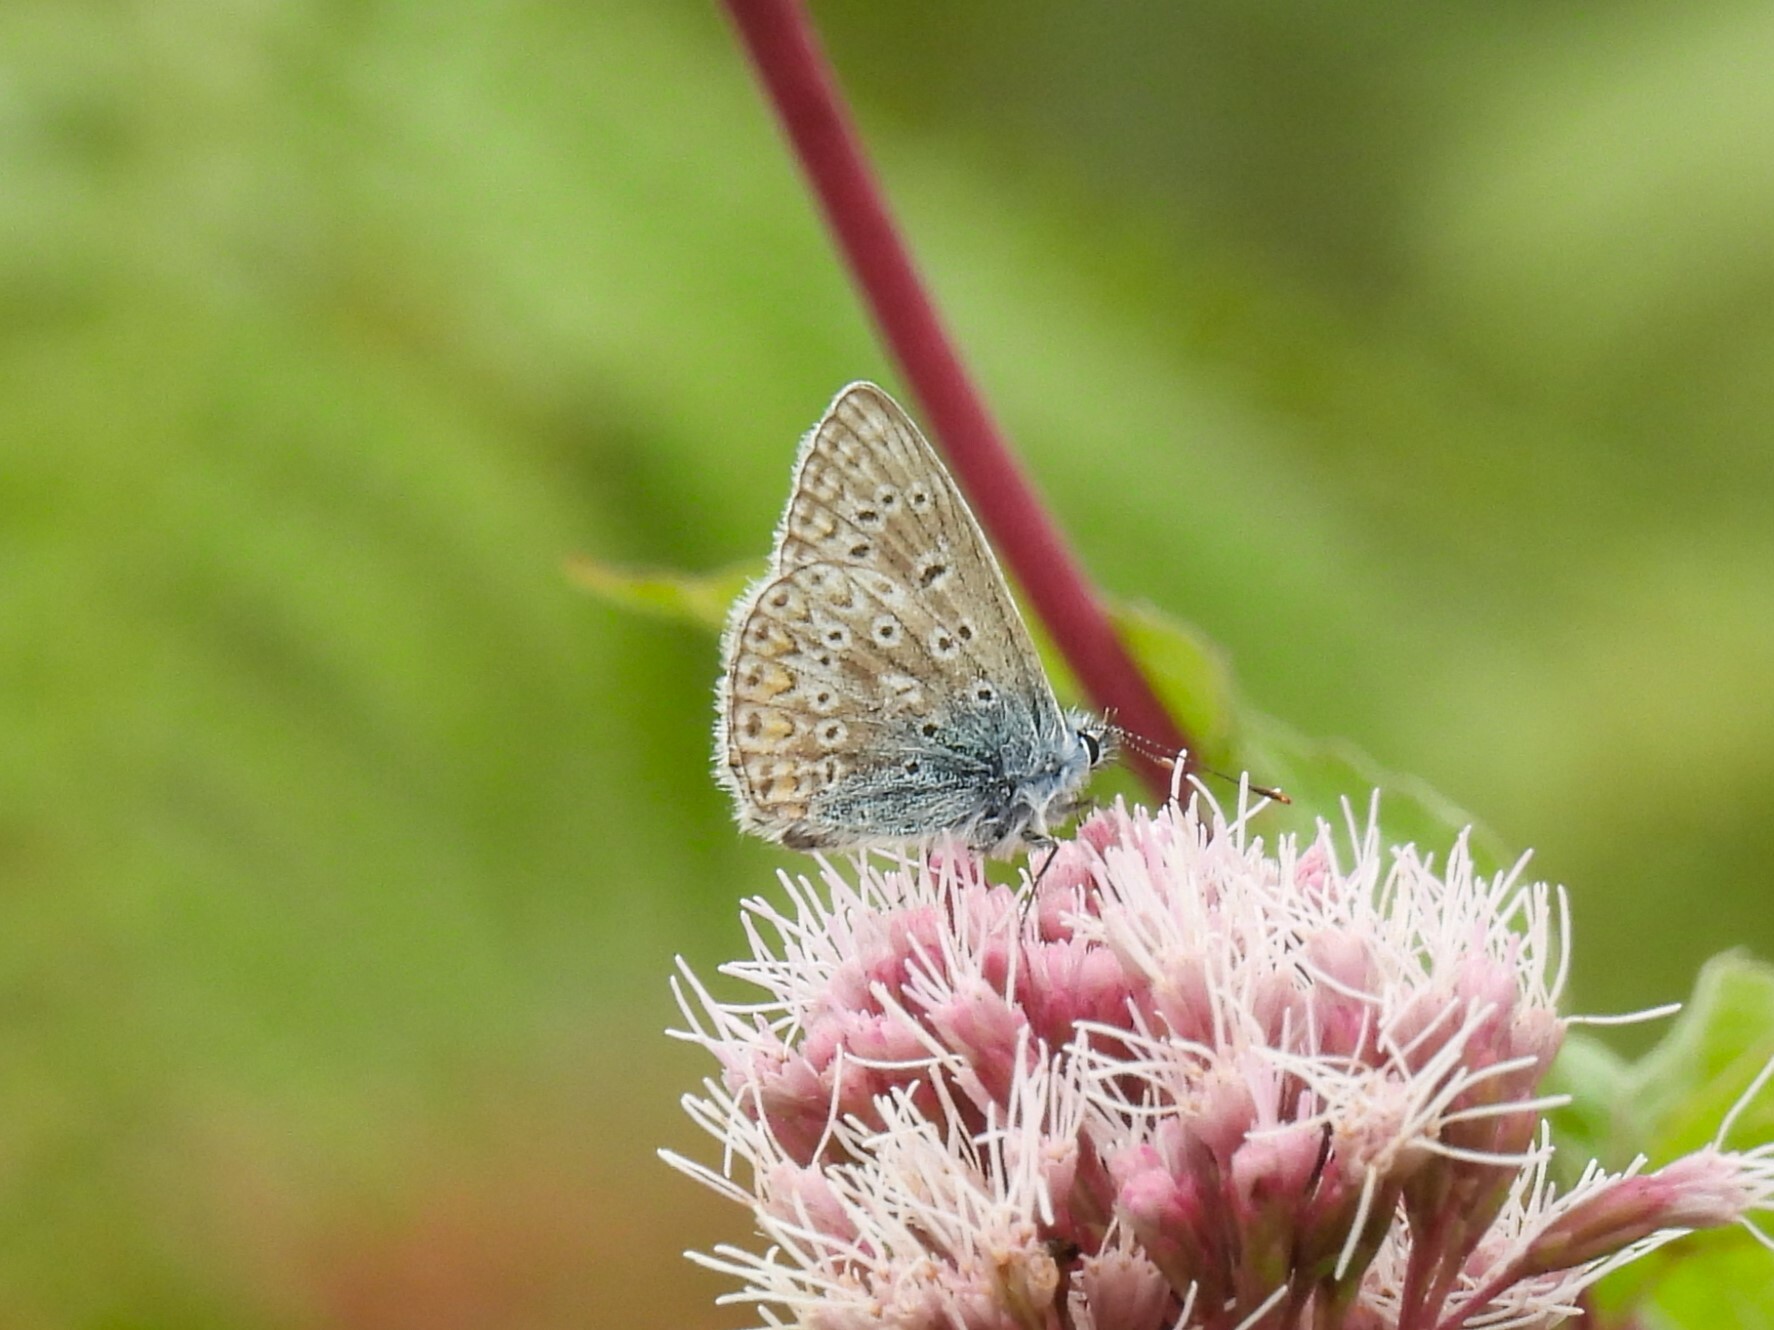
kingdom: Animalia
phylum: Arthropoda
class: Insecta
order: Lepidoptera
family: Lycaenidae
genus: Polyommatus
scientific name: Polyommatus icarus
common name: Common blue
